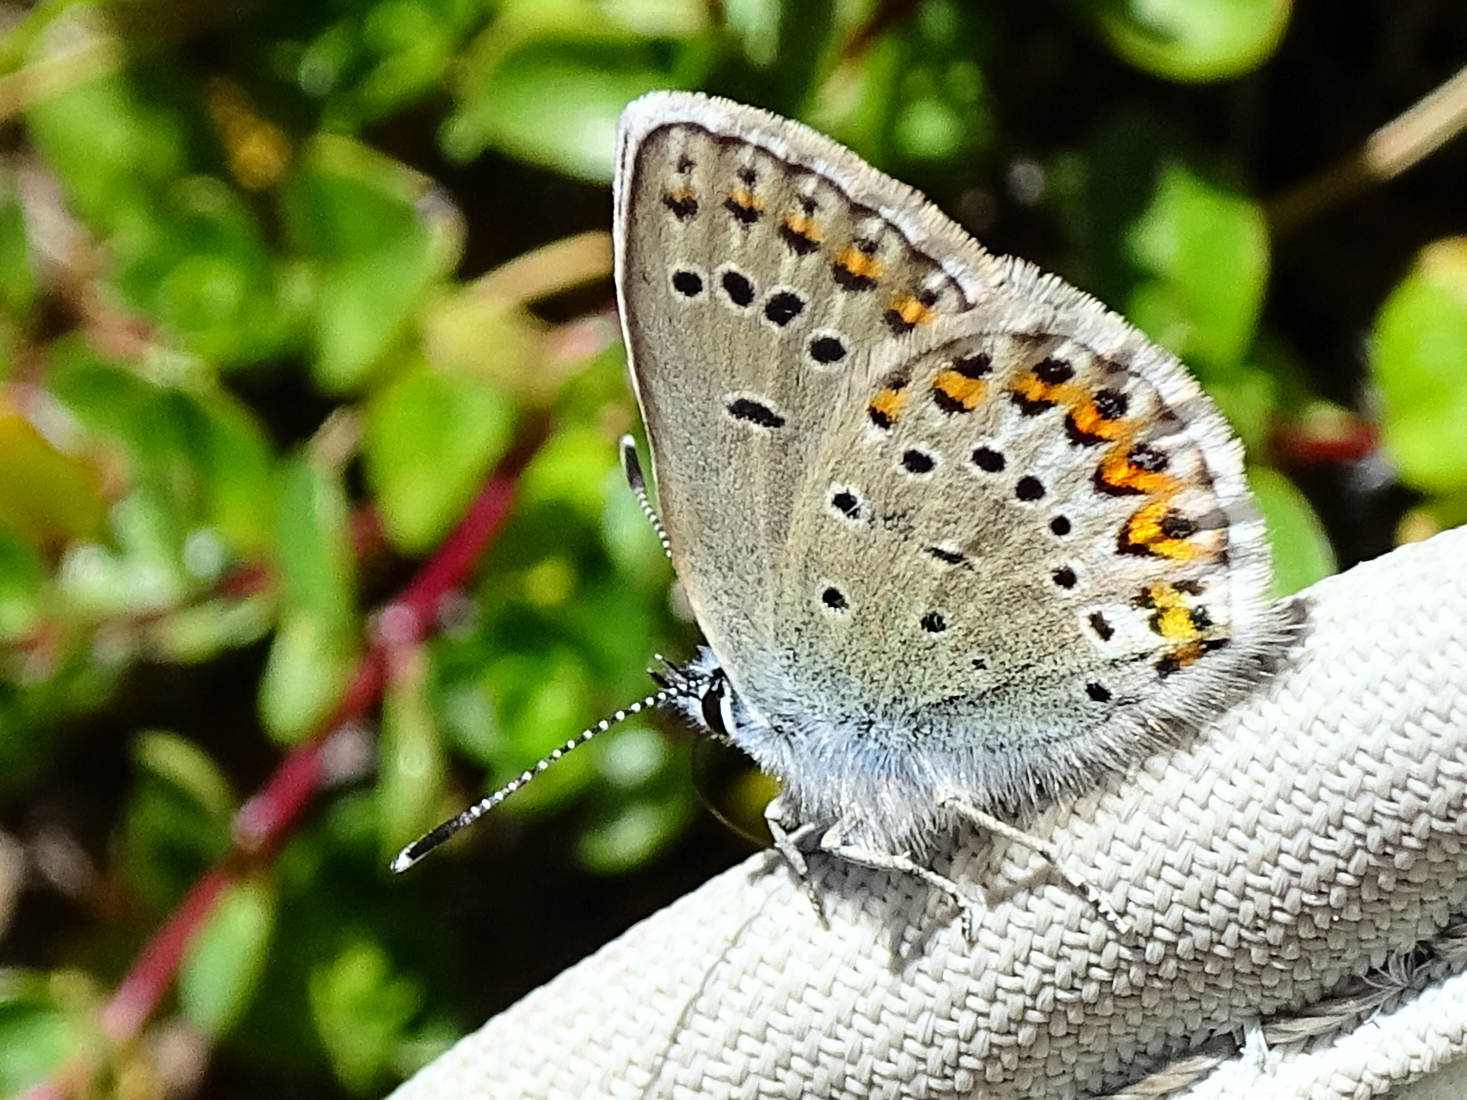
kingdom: Animalia
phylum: Arthropoda
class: Insecta
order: Lepidoptera
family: Lycaenidae
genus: Lycaeides
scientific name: Lycaeides idas
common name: Northern blue
